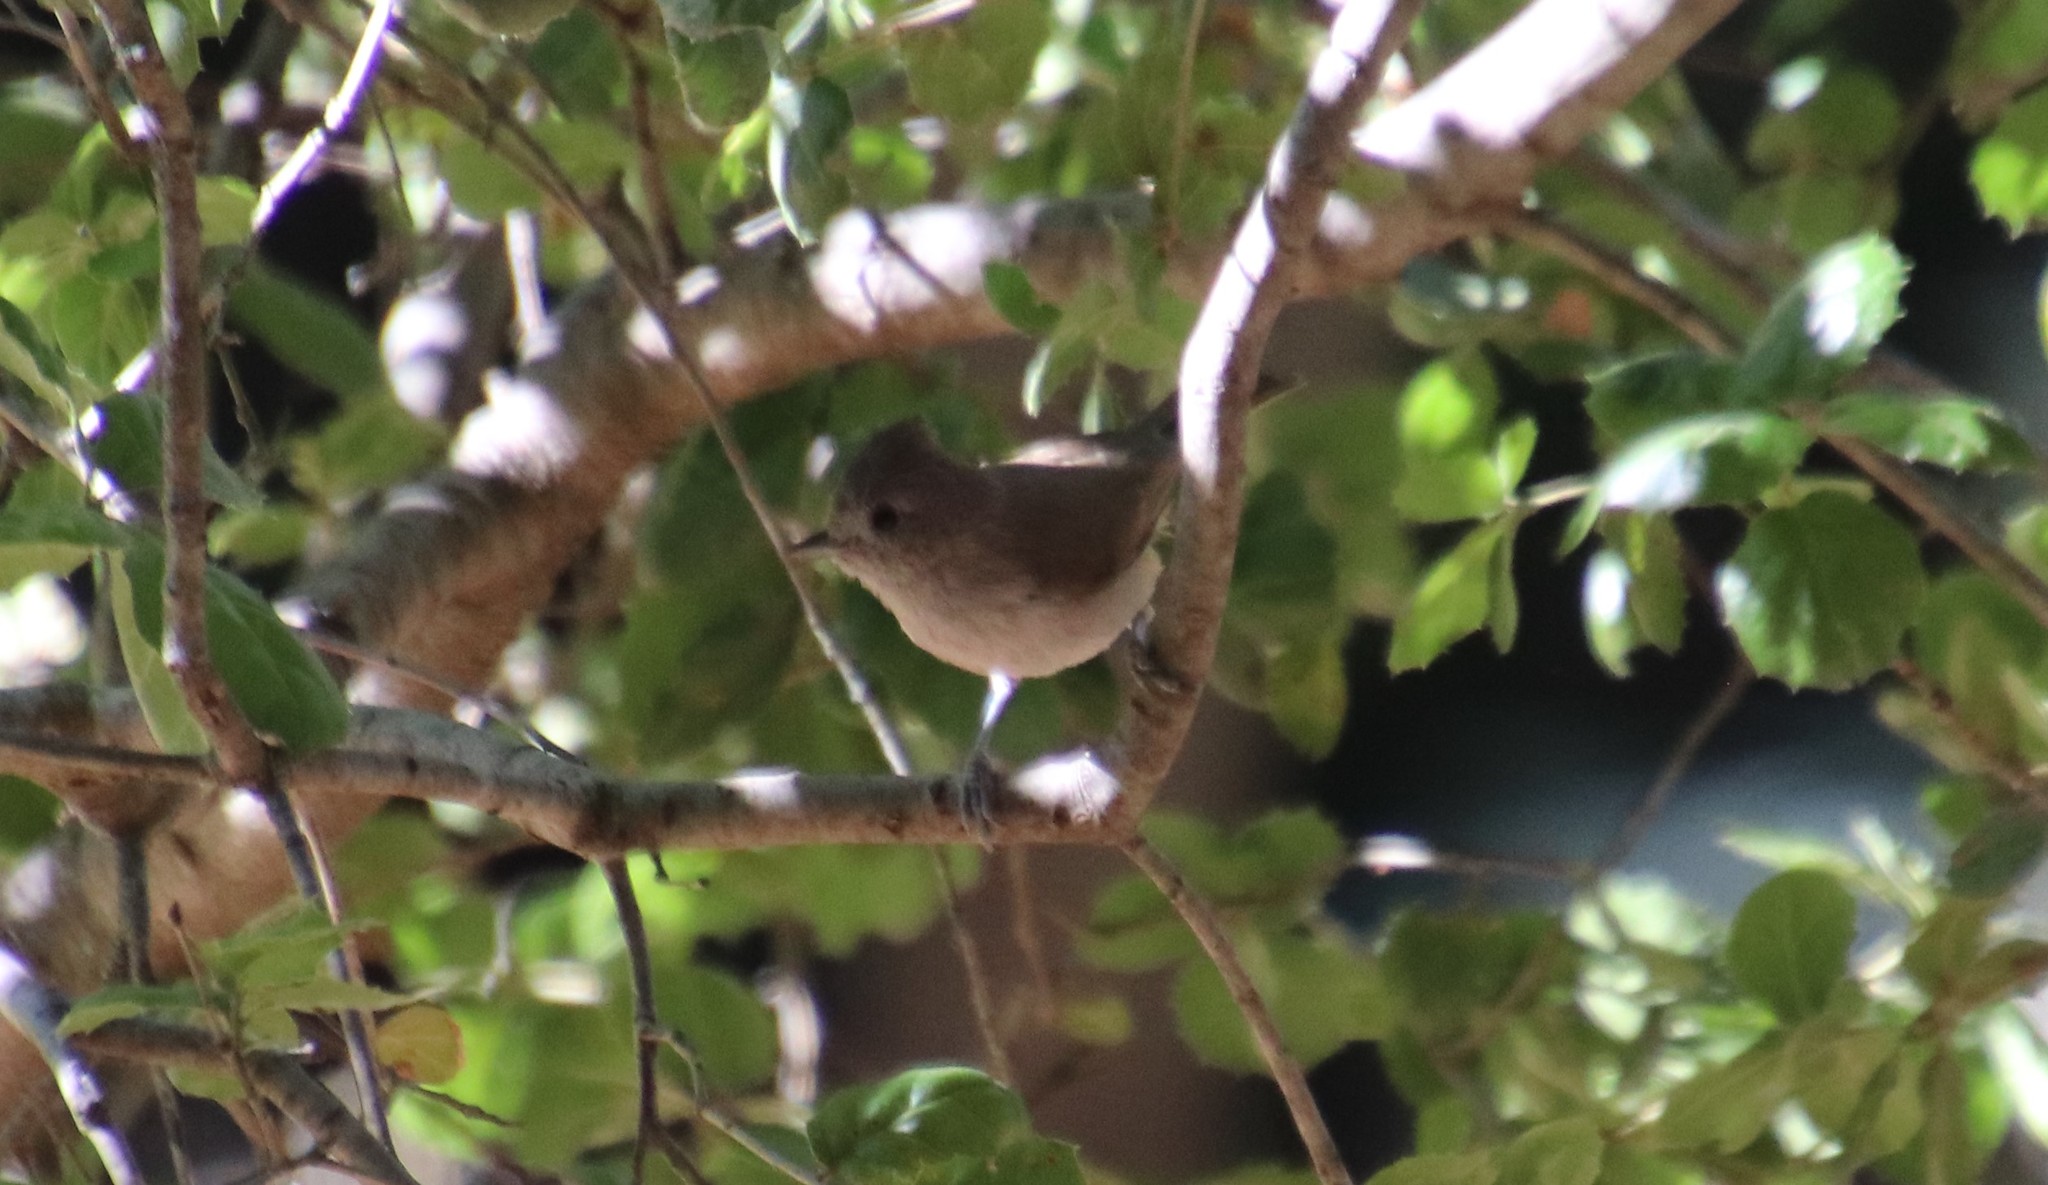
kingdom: Animalia
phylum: Chordata
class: Aves
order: Passeriformes
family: Paridae
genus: Baeolophus
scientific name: Baeolophus inornatus
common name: Oak titmouse
